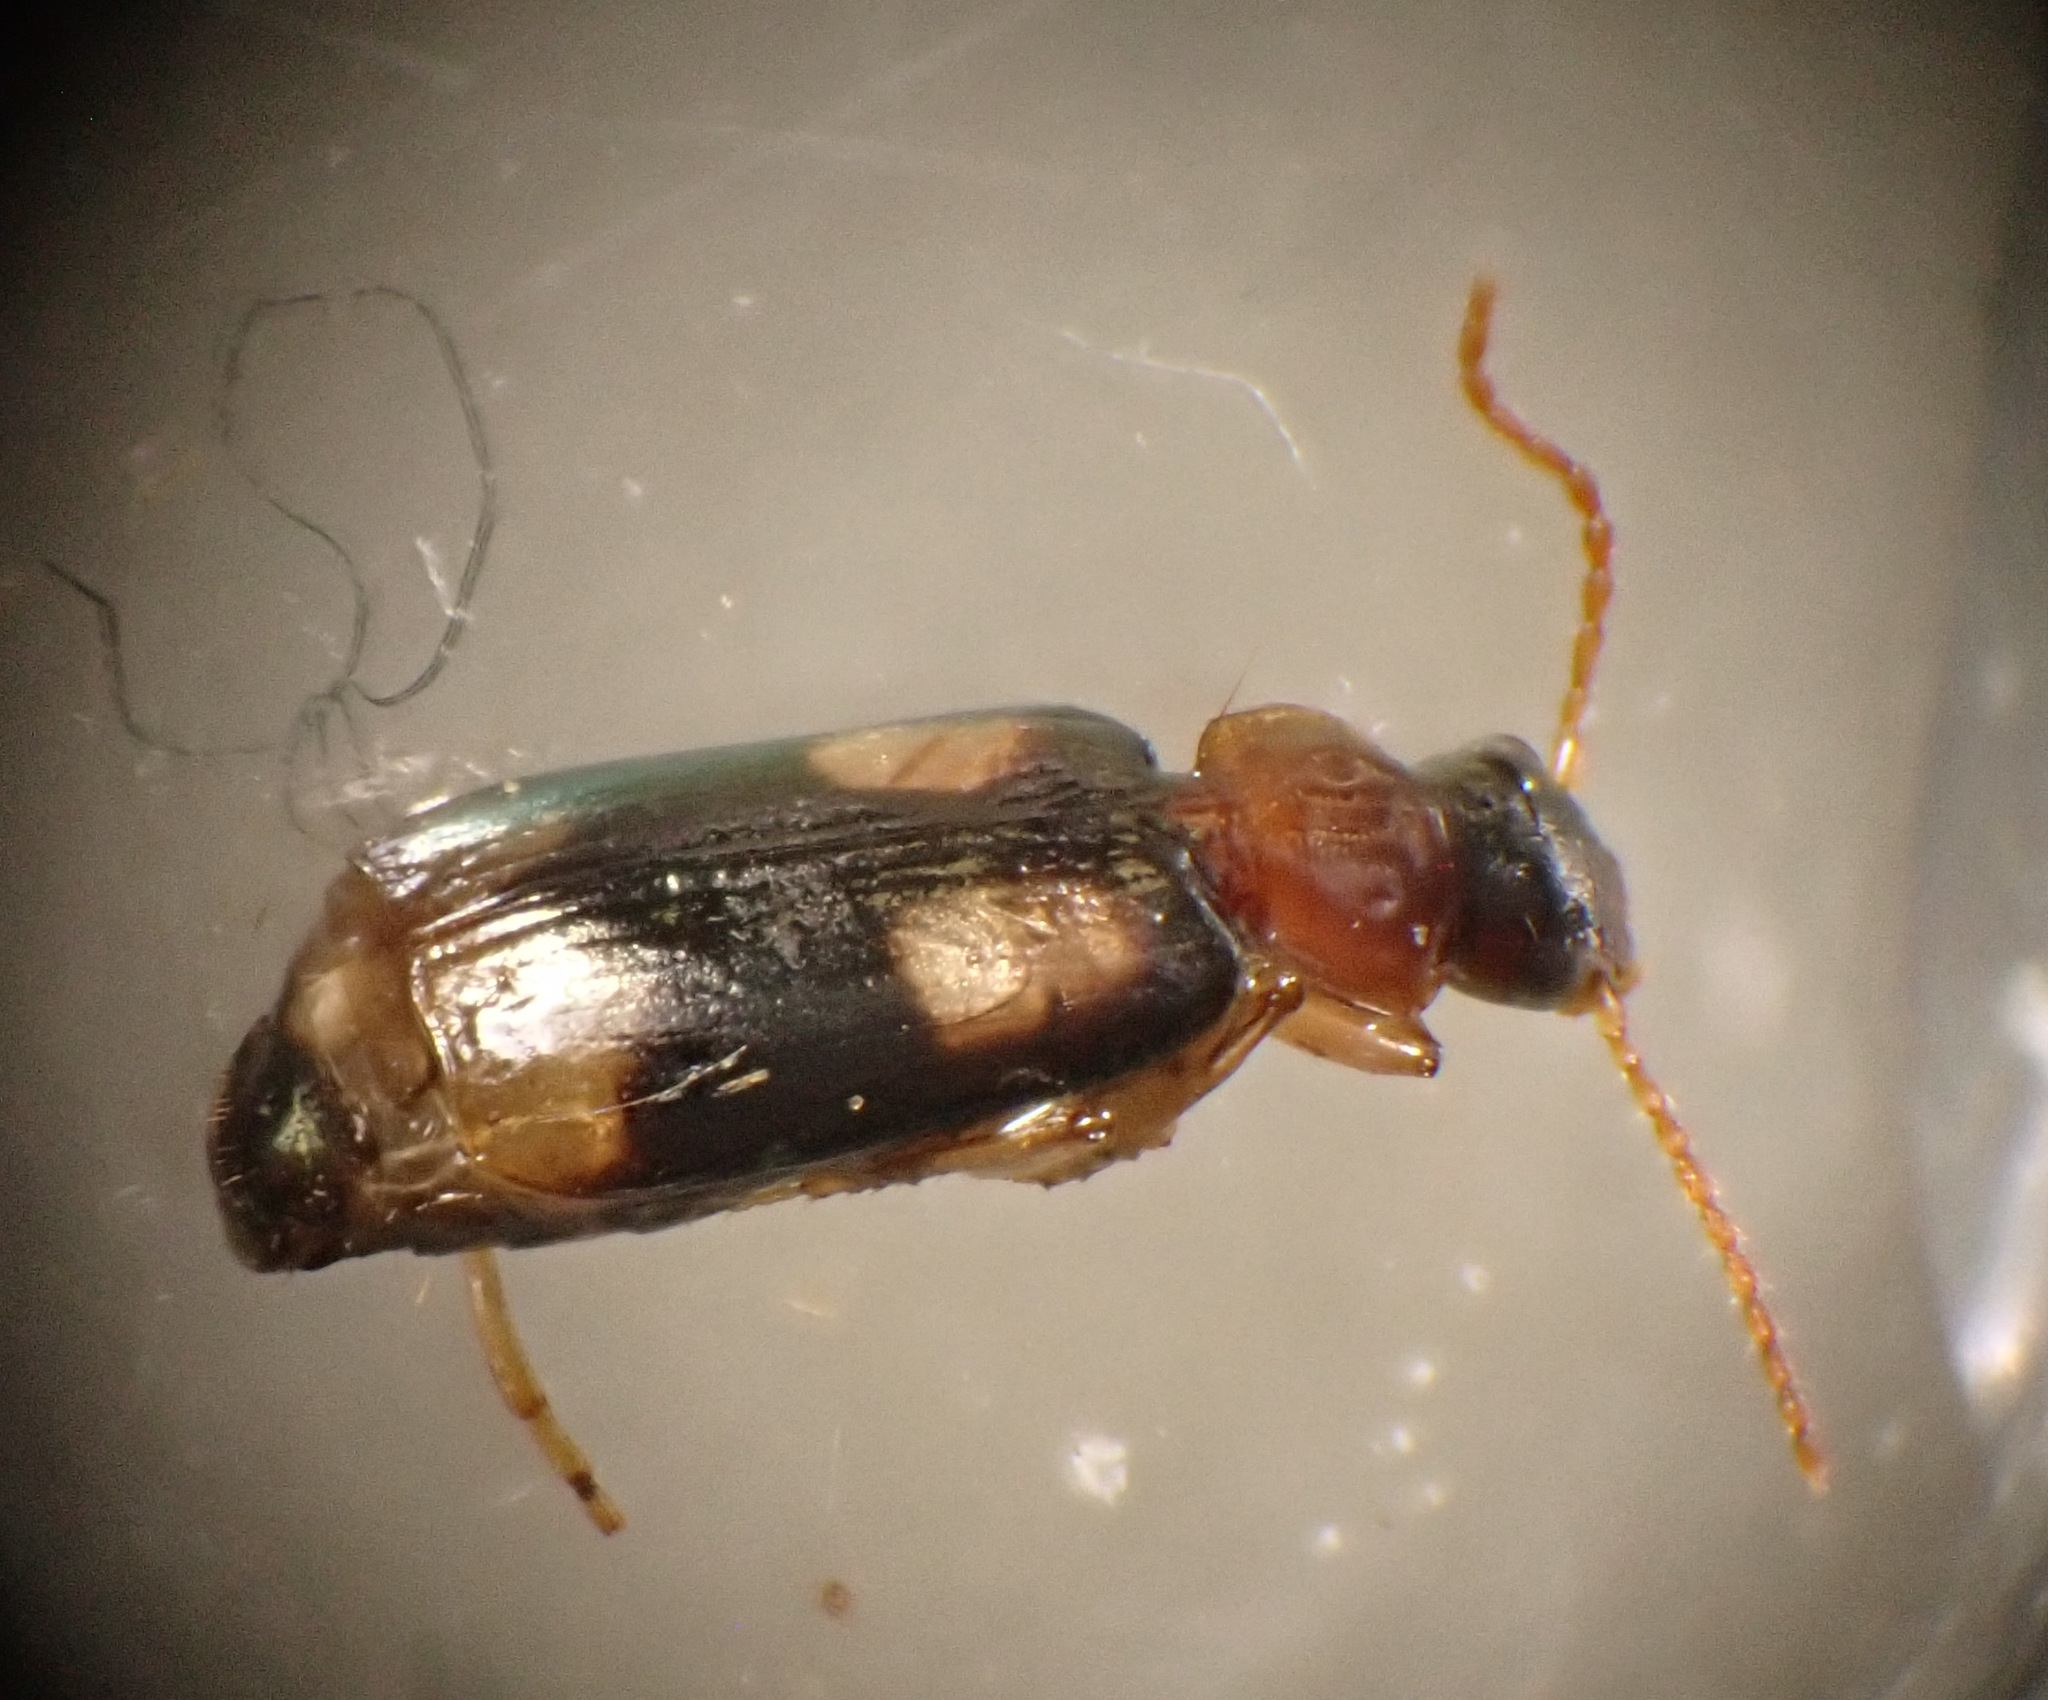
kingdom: Animalia
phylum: Arthropoda
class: Insecta
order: Coleoptera
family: Carabidae
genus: Dromius
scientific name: Dromius quadrimaculatus
